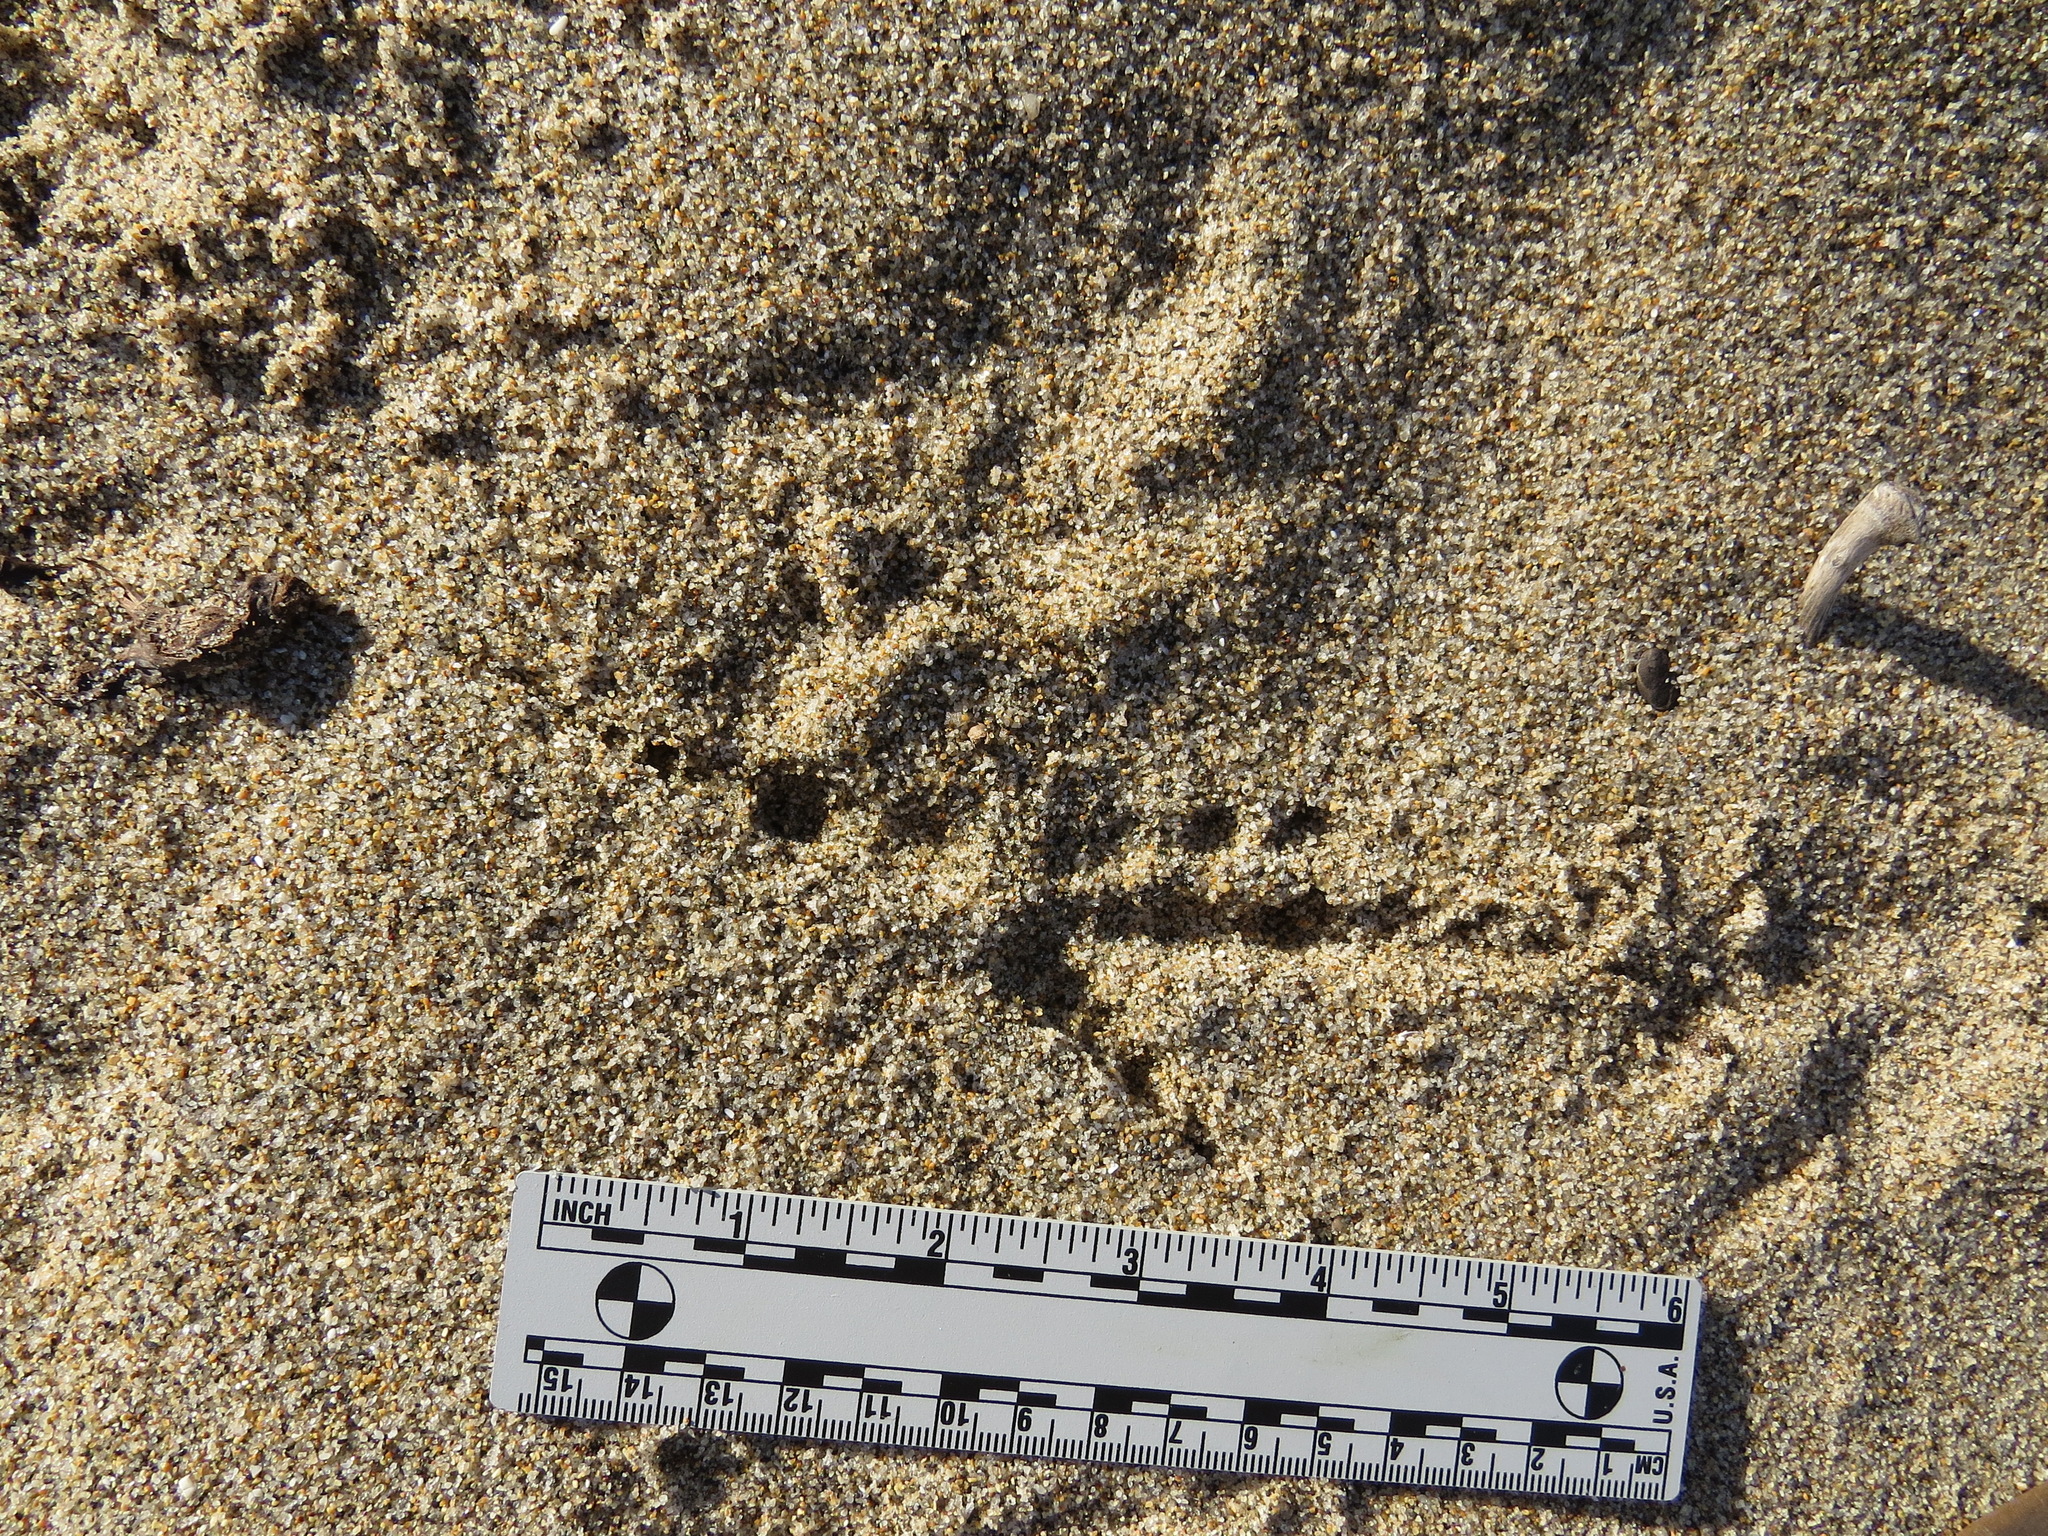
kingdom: Animalia
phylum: Chordata
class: Aves
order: Passeriformes
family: Corvidae
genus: Corvus
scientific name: Corvus corax
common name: Common raven
